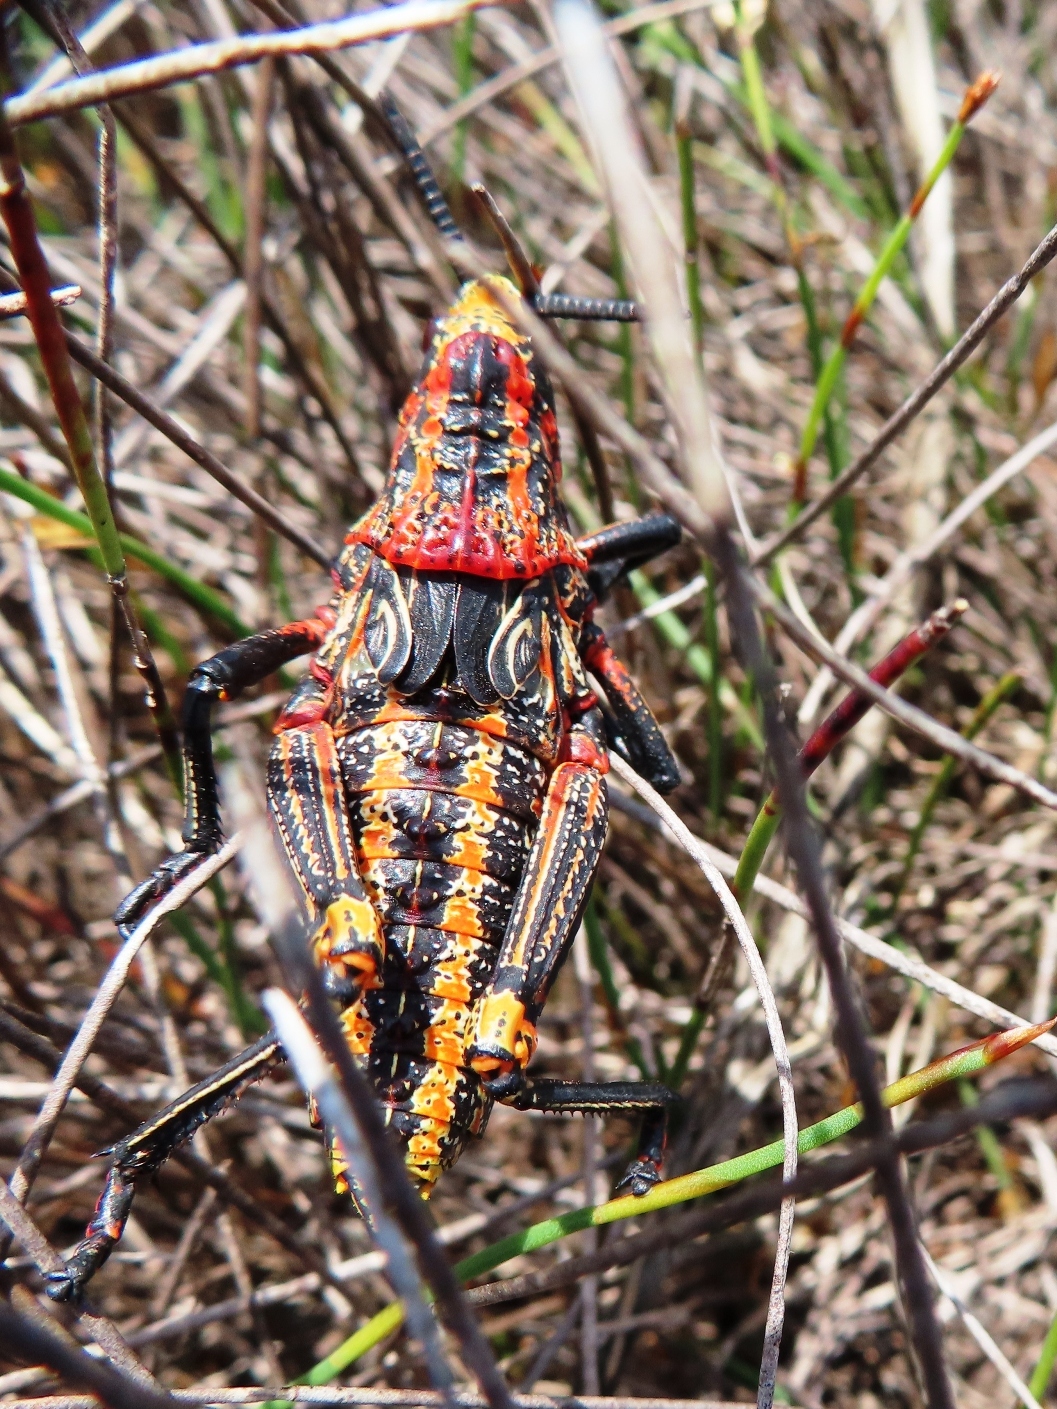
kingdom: Animalia
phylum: Arthropoda
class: Insecta
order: Orthoptera
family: Pyrgomorphidae
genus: Dictyophorus
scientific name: Dictyophorus spumans
